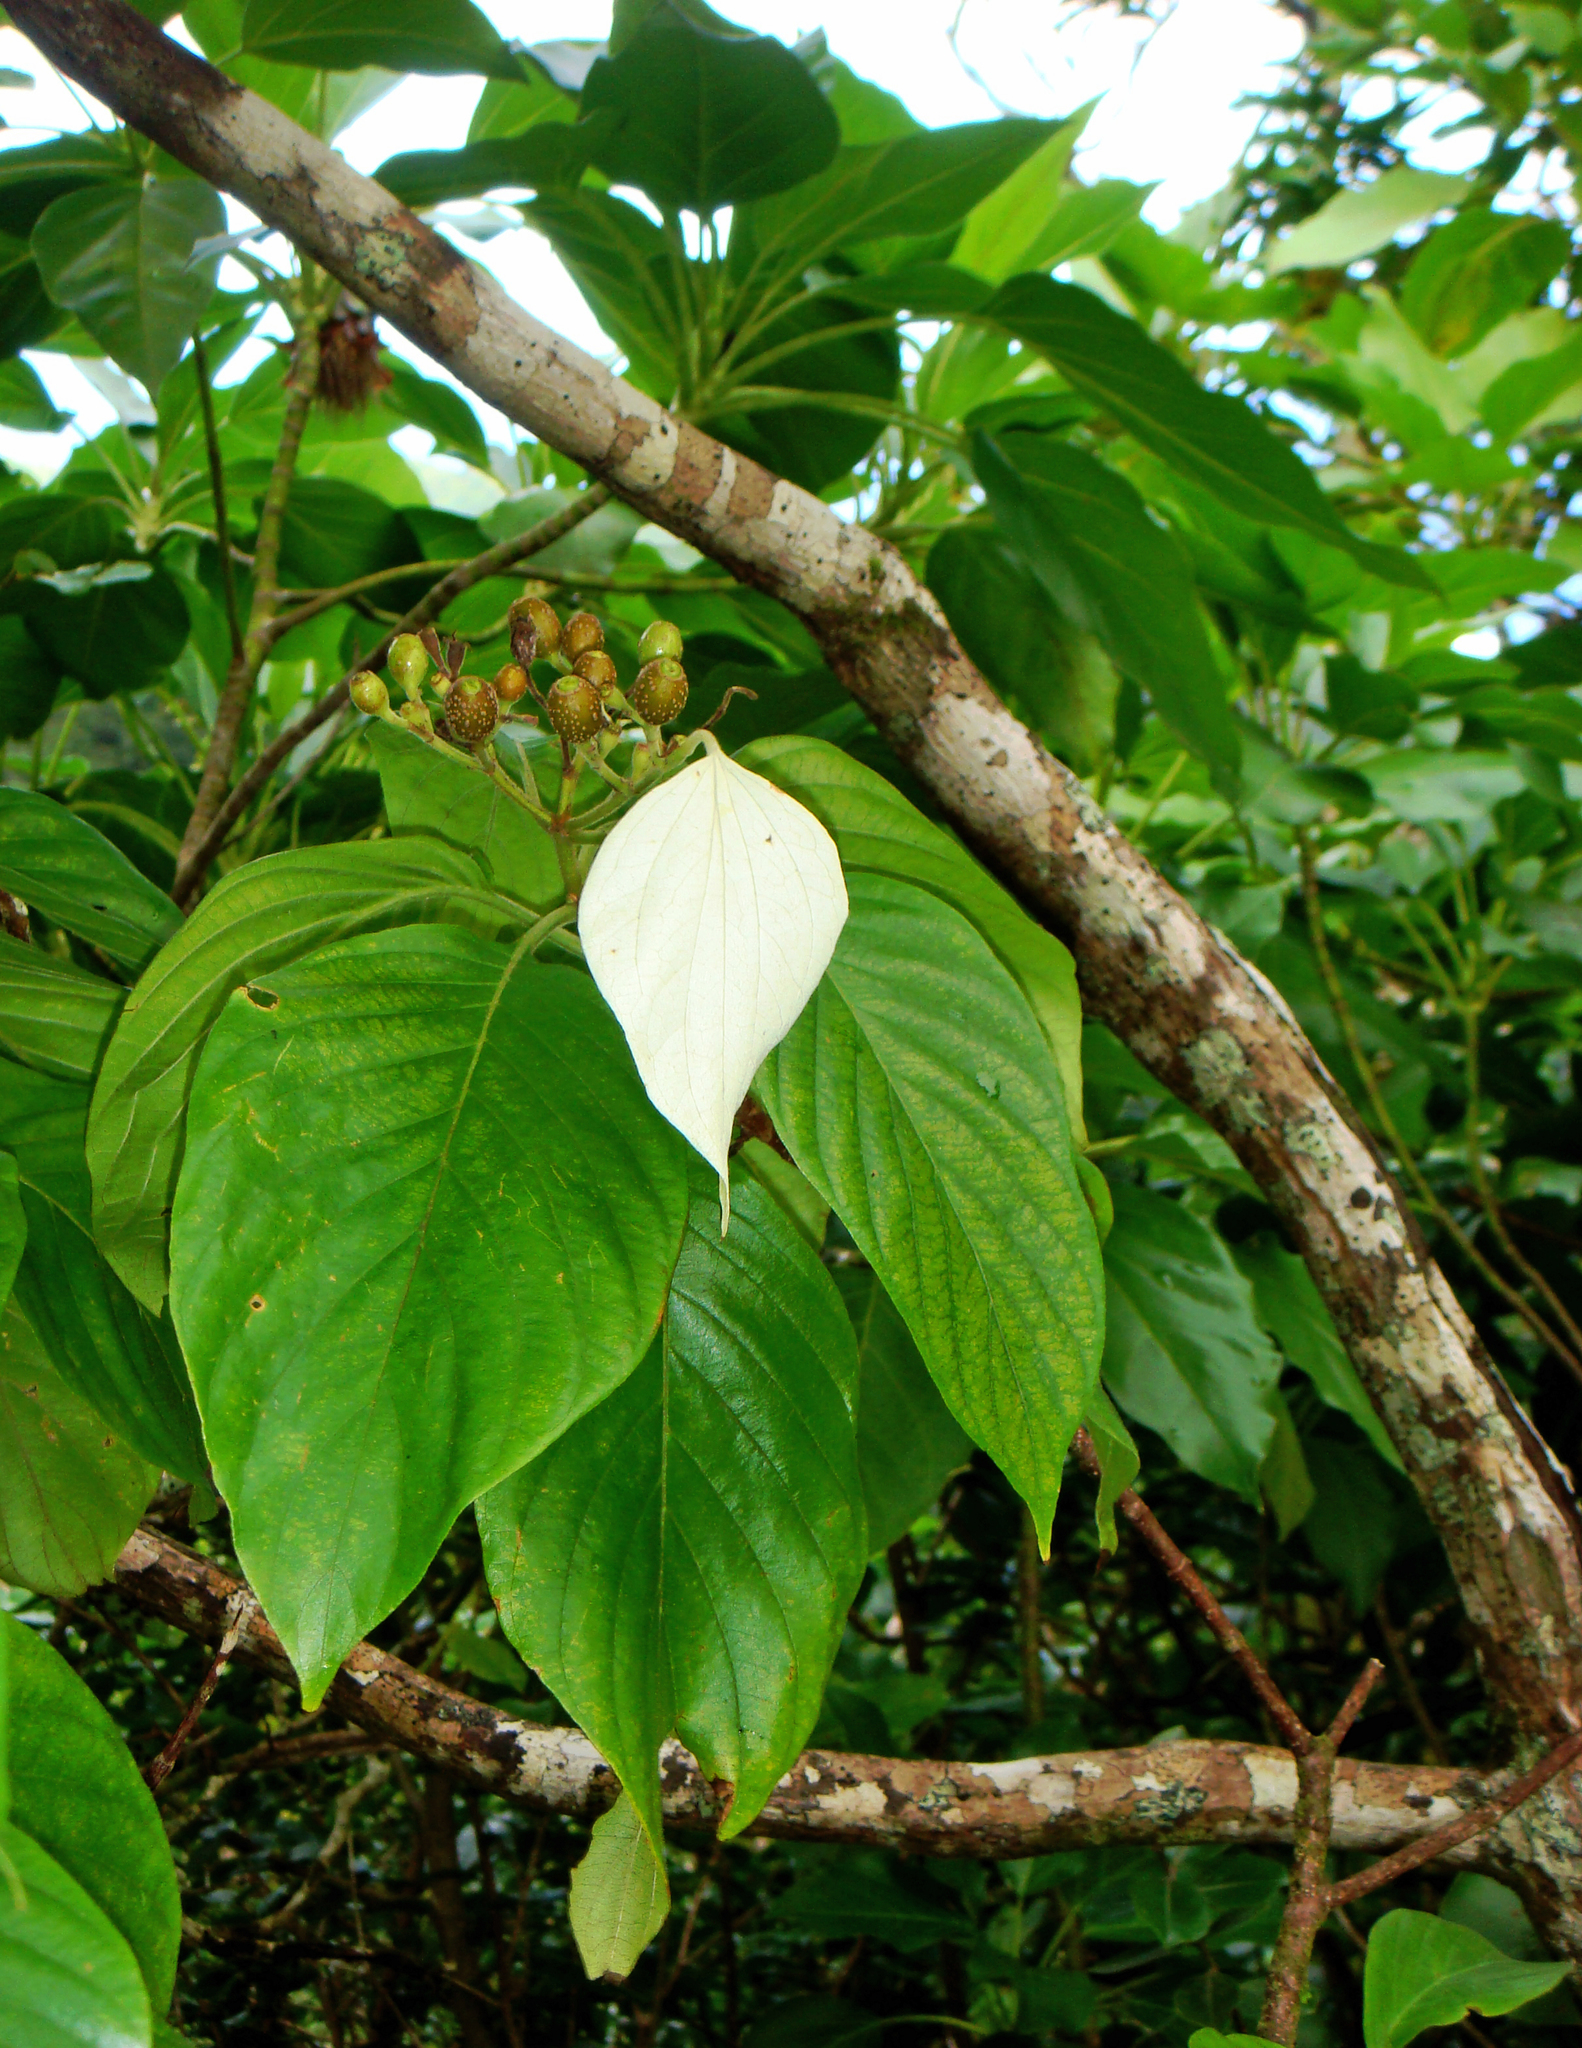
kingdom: Plantae
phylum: Tracheophyta
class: Magnoliopsida
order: Gentianales
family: Rubiaceae
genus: Mussaenda
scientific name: Mussaenda raiateensis
